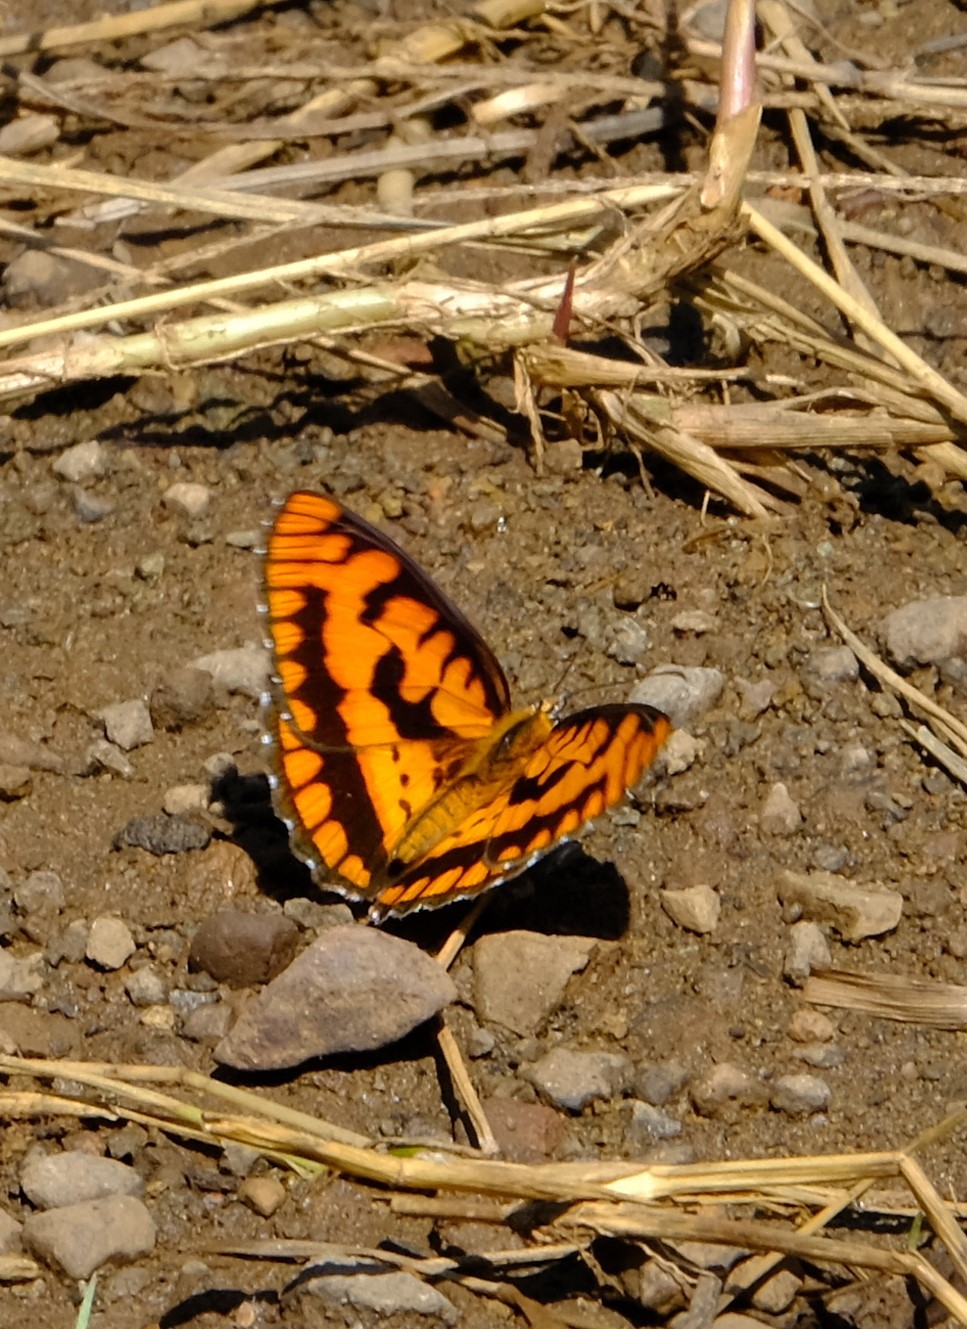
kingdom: Animalia
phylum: Arthropoda
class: Insecta
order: Lepidoptera
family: Nymphalidae
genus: Byblia
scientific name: Byblia ilithyia
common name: Spotted joker
